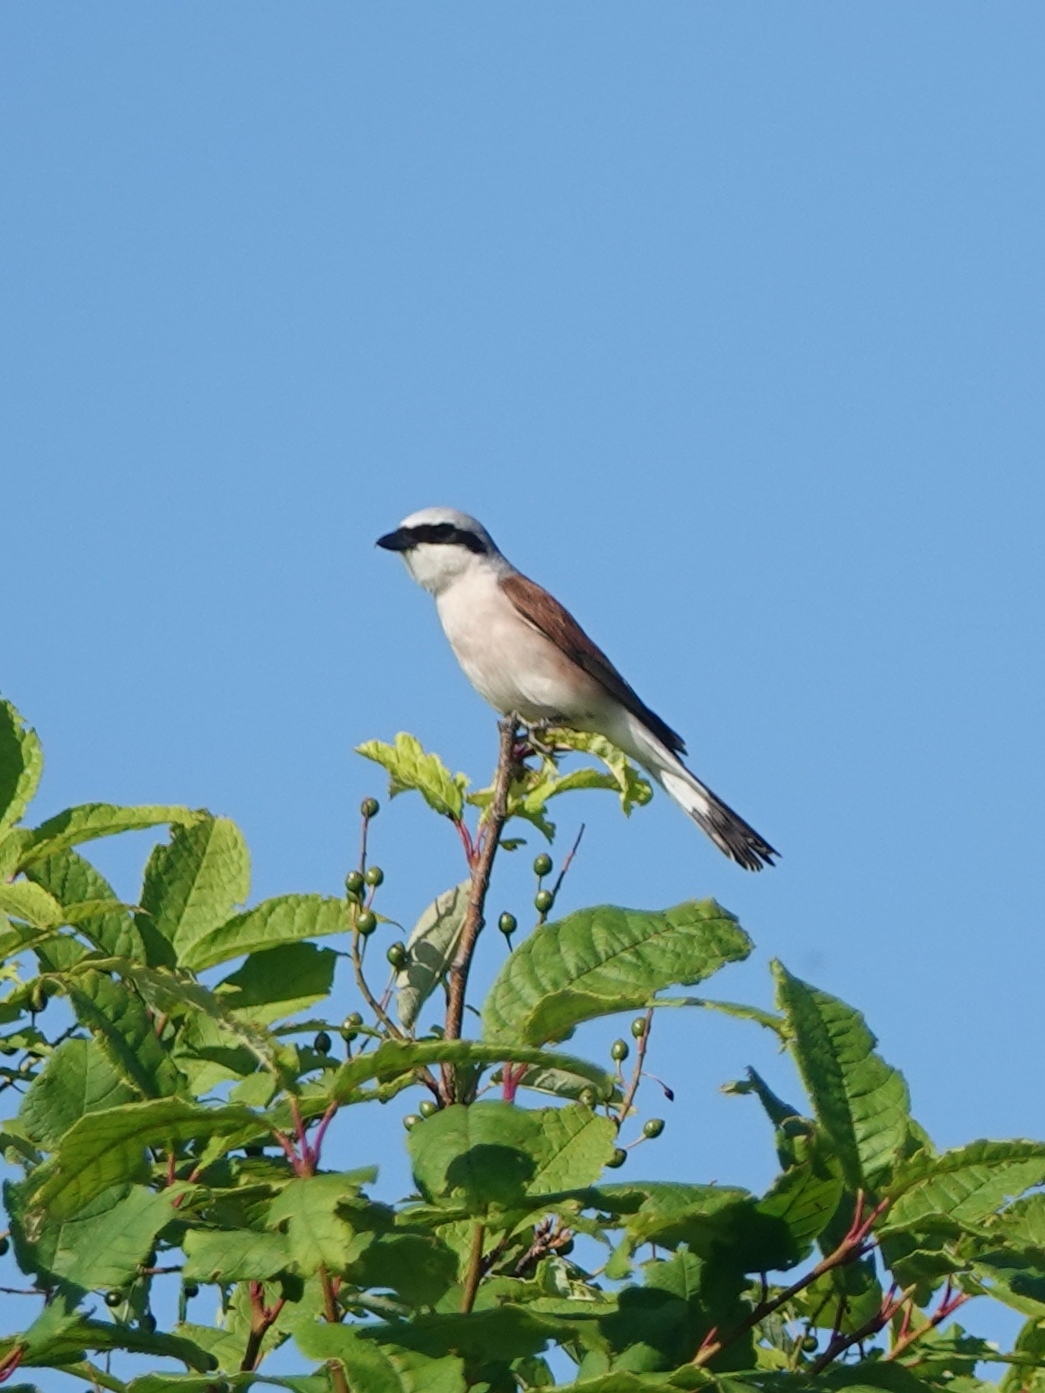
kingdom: Animalia
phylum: Chordata
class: Aves
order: Passeriformes
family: Laniidae
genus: Lanius
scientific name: Lanius collurio
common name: Red-backed shrike
